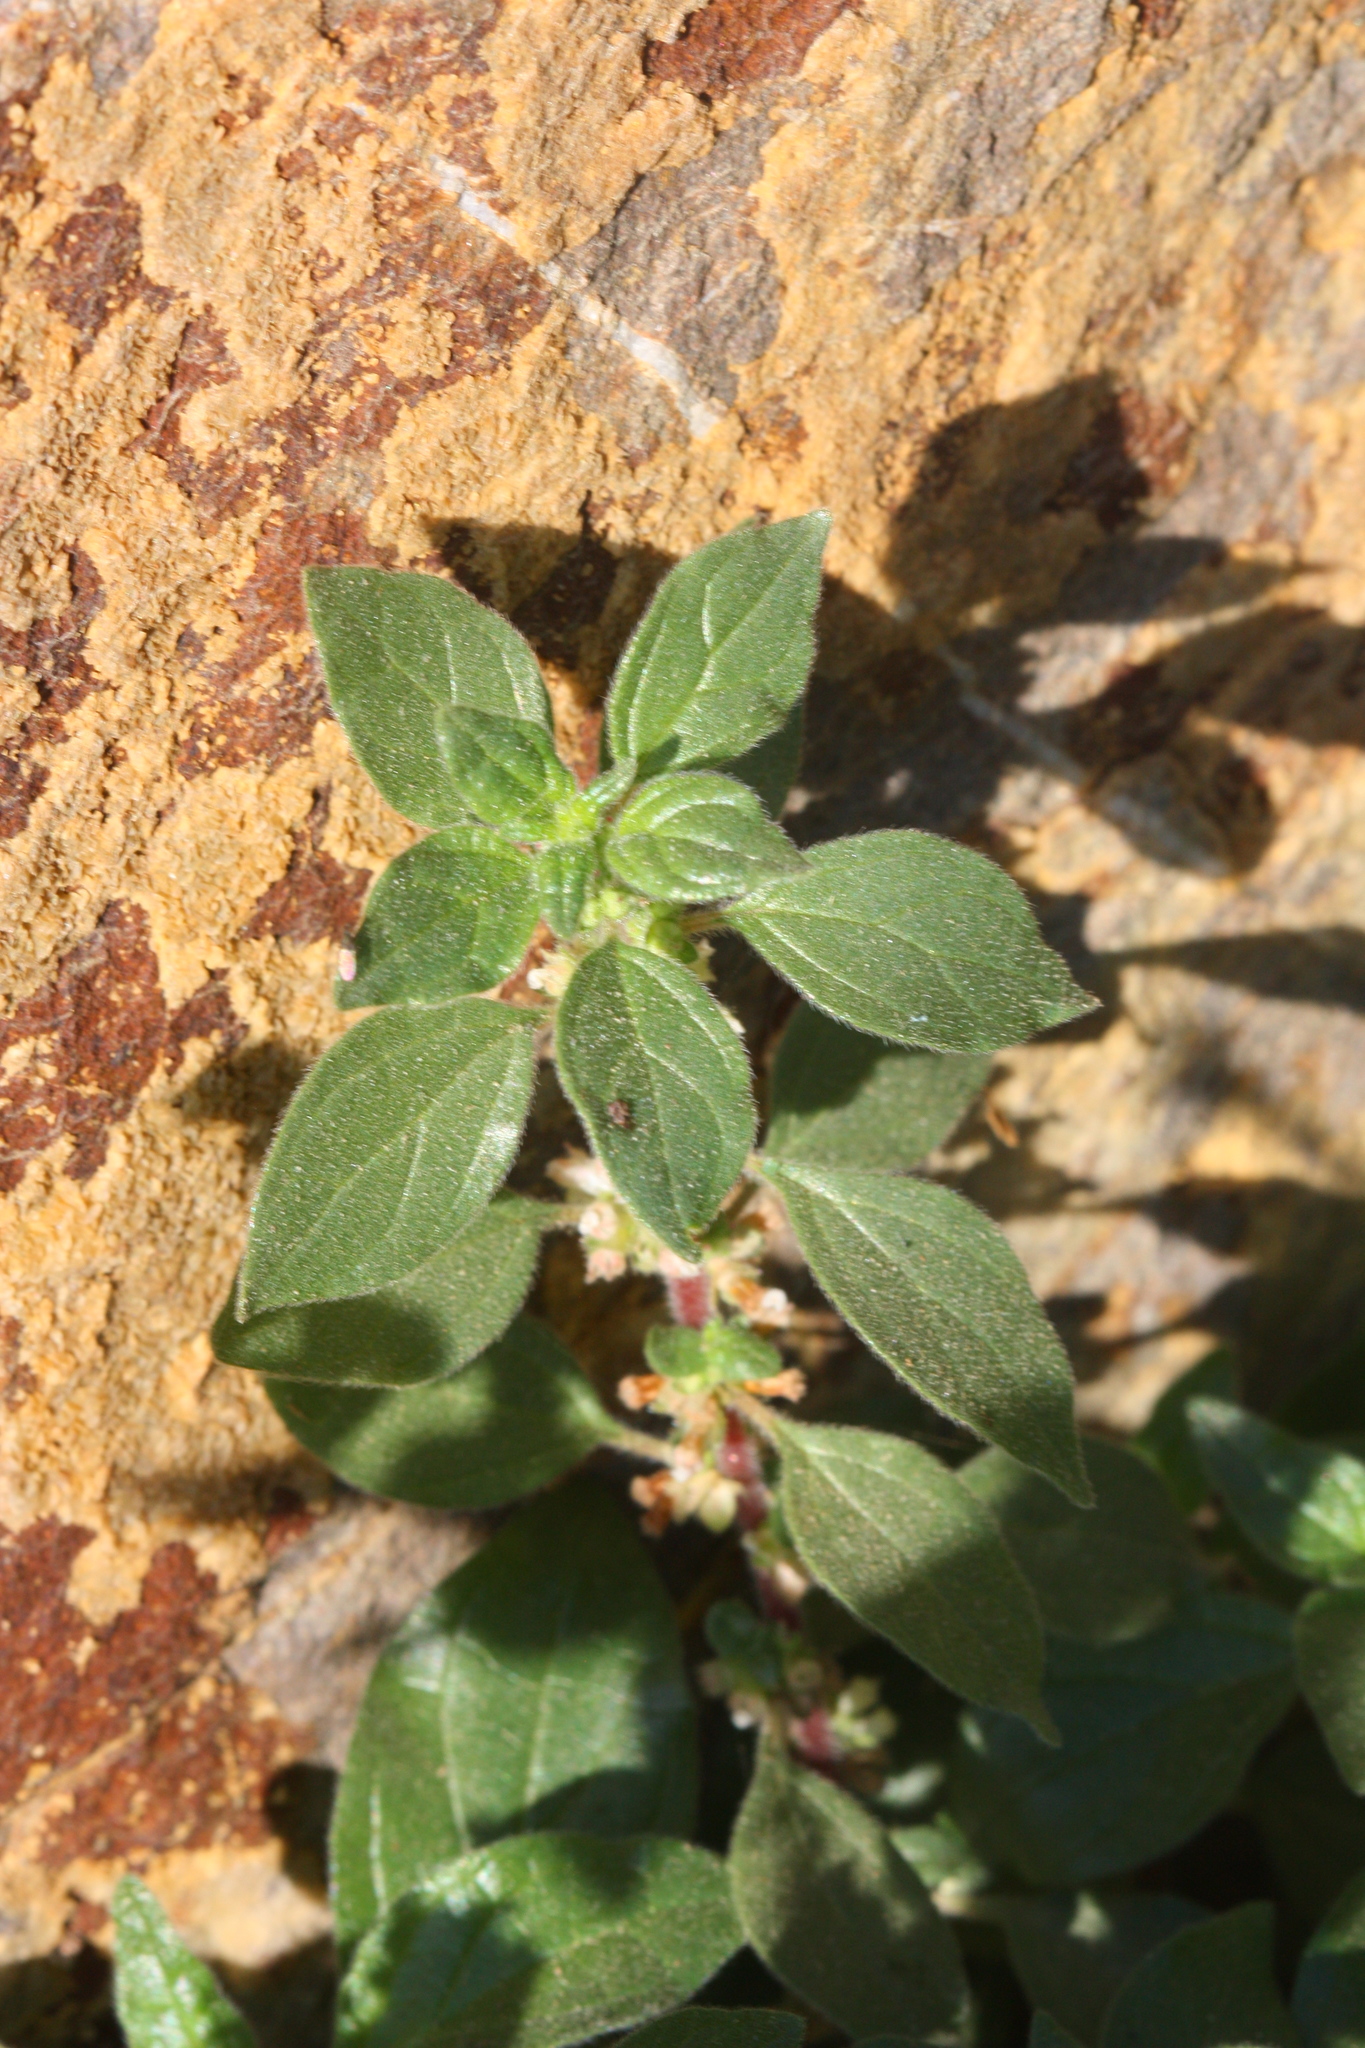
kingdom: Plantae
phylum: Tracheophyta
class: Magnoliopsida
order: Rosales
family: Urticaceae
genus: Parietaria
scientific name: Parietaria judaica
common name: Pellitory-of-the-wall
